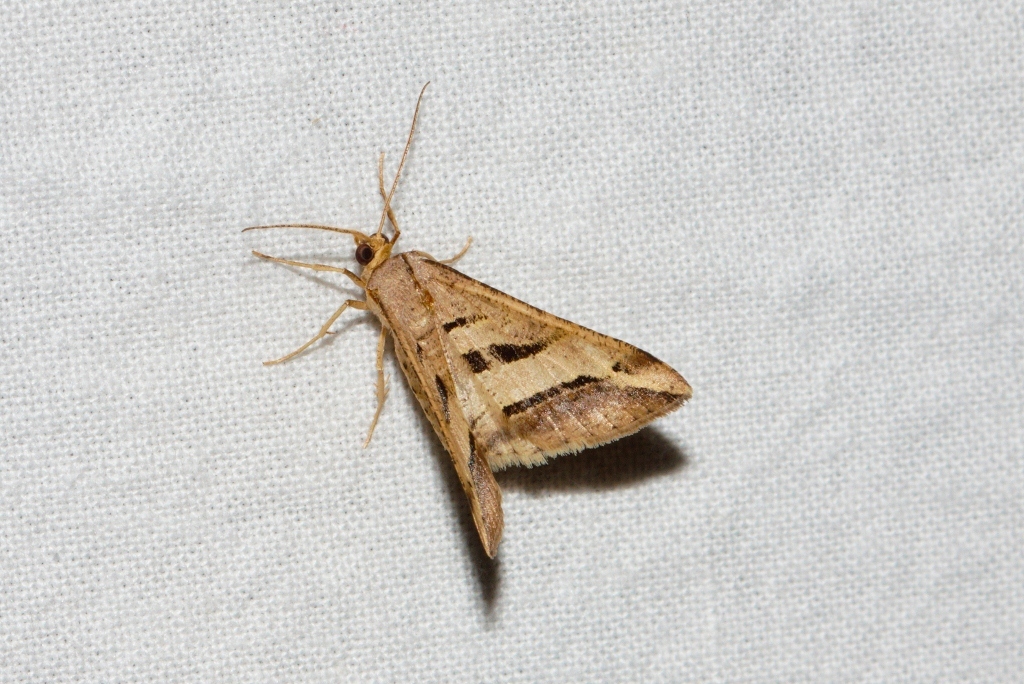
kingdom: Animalia
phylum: Arthropoda
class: Insecta
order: Lepidoptera
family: Geometridae
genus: Chiasmia
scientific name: Chiasmia subcurvaria
